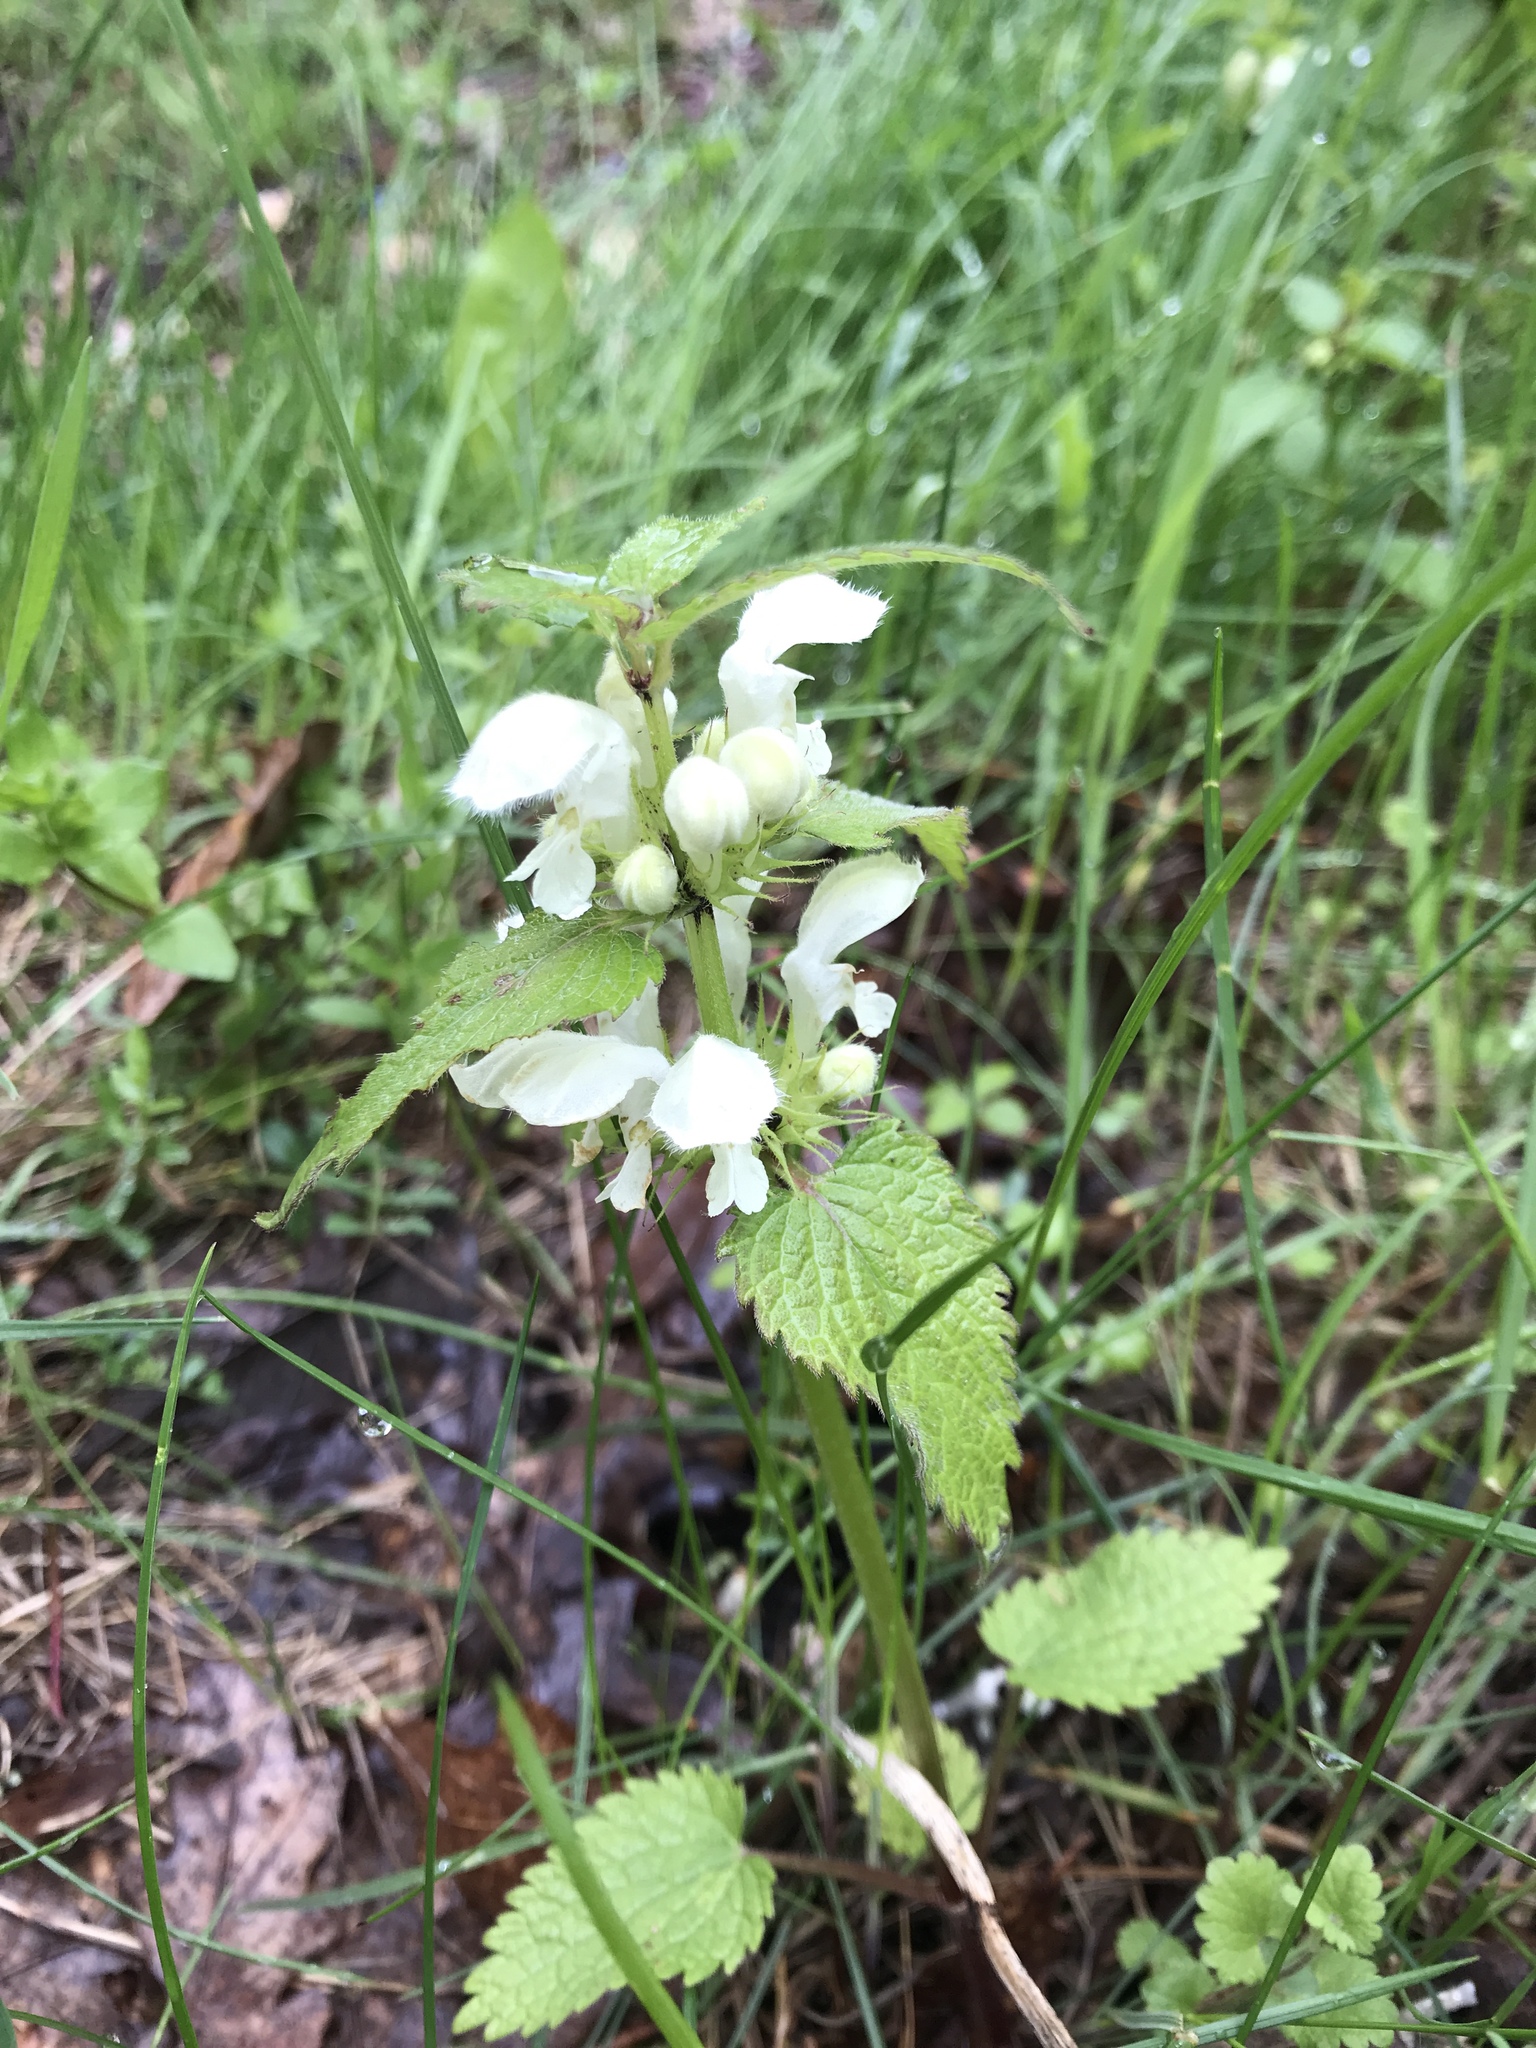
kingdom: Plantae
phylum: Tracheophyta
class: Magnoliopsida
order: Lamiales
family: Lamiaceae
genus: Lamium
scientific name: Lamium album
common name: White dead-nettle
